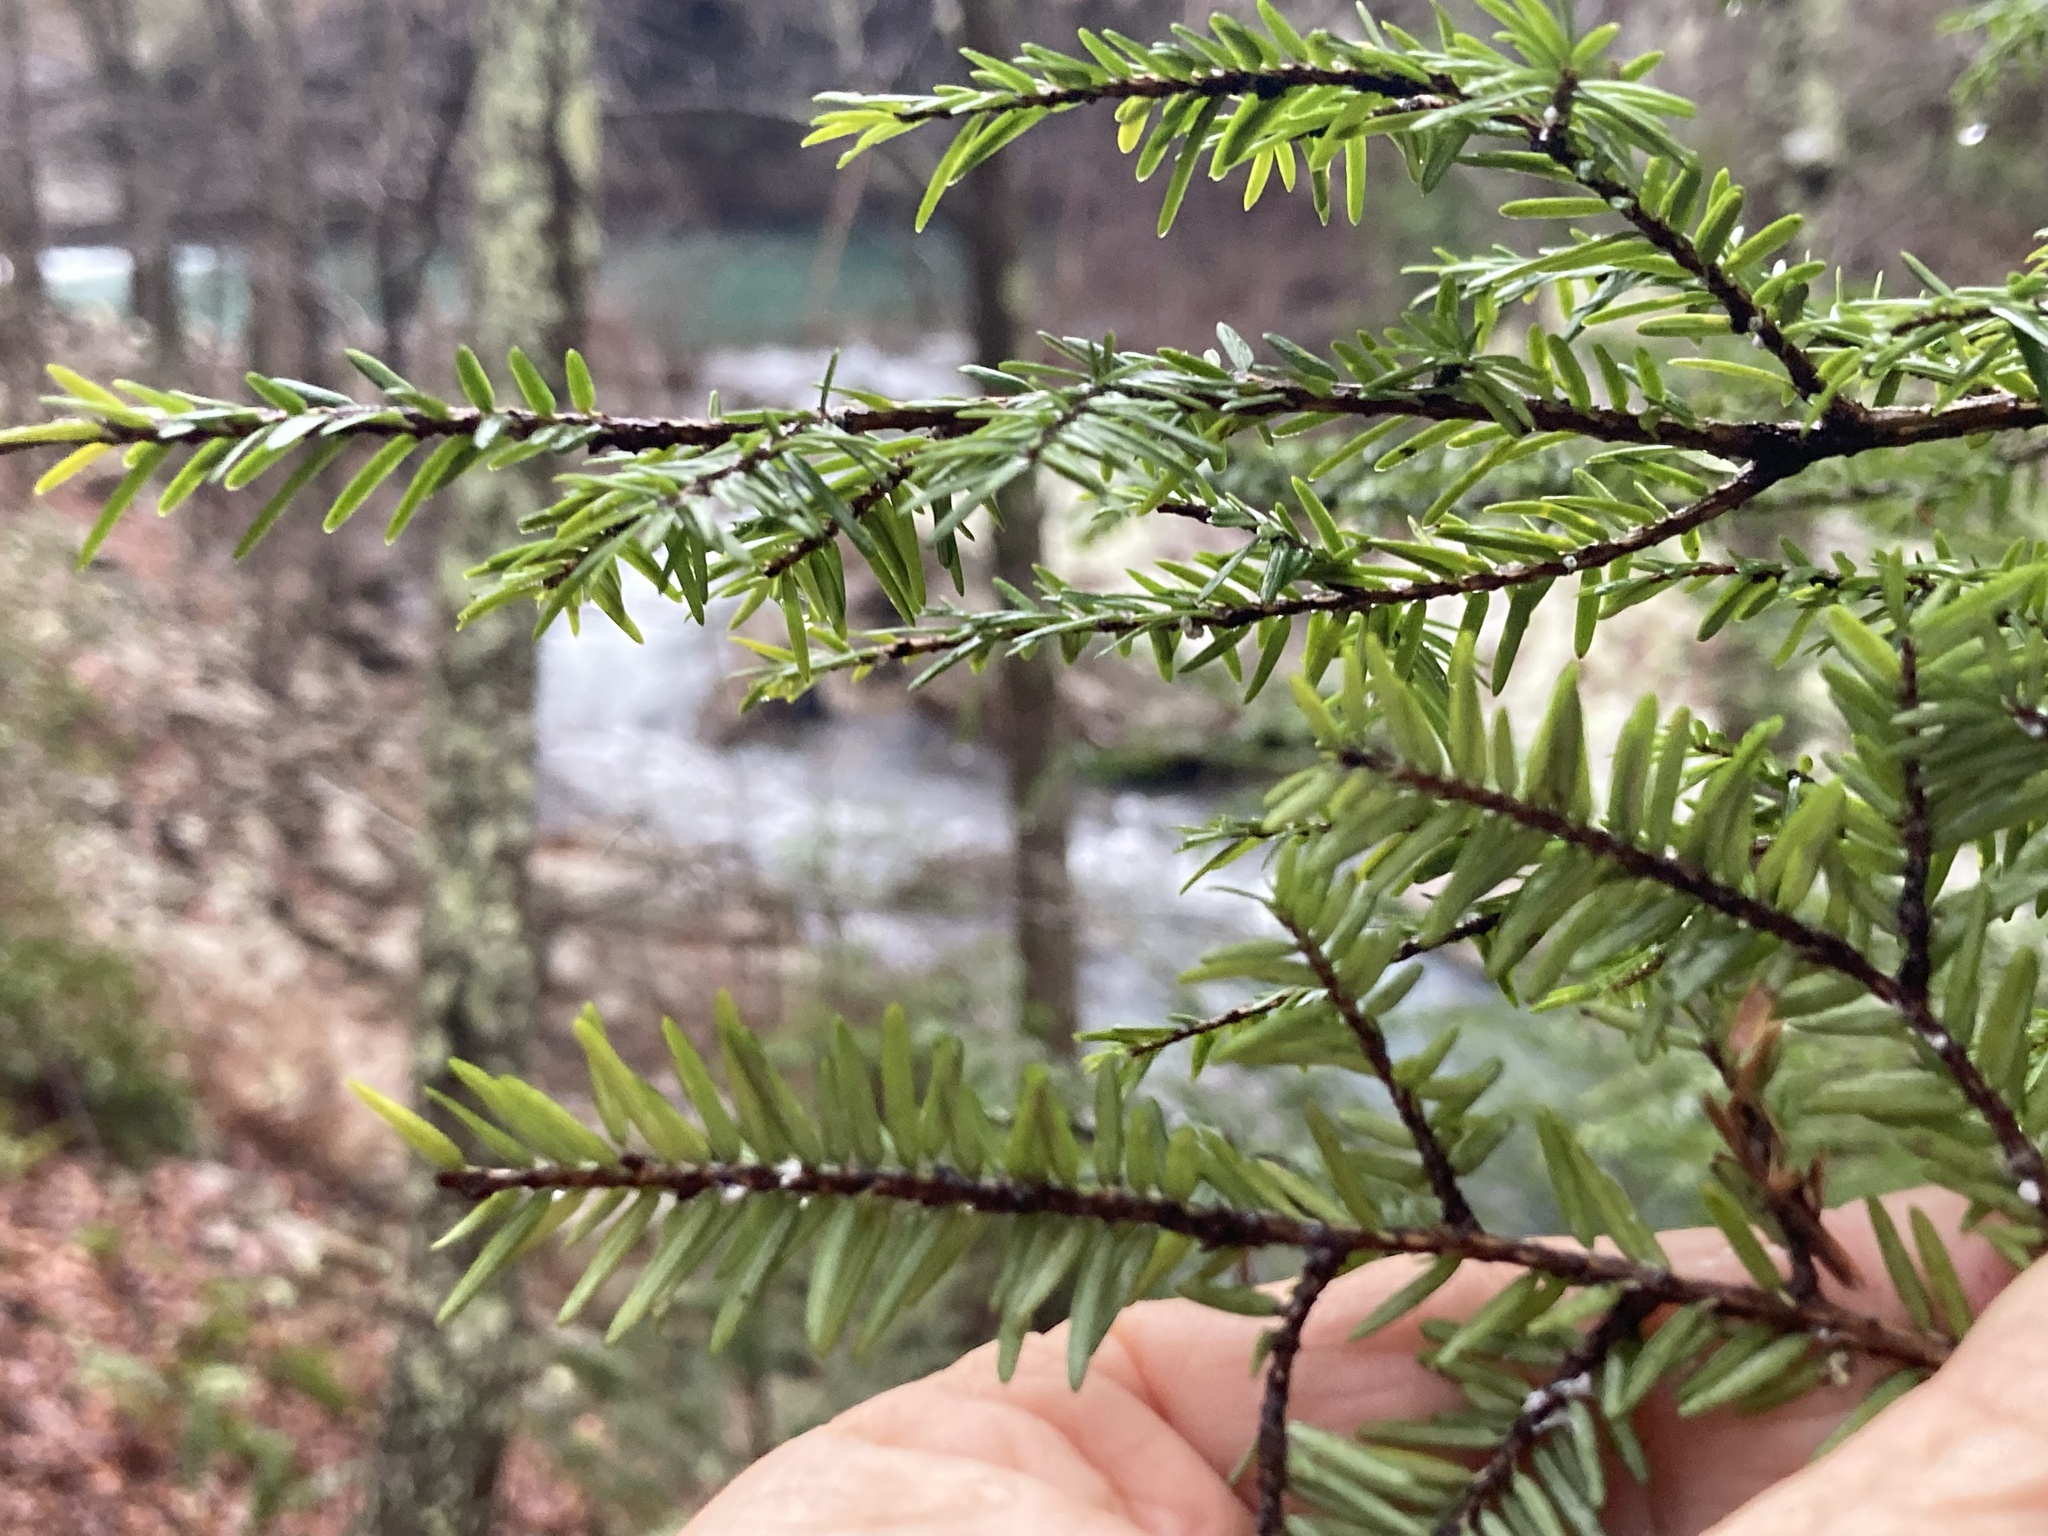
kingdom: Plantae
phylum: Tracheophyta
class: Pinopsida
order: Pinales
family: Pinaceae
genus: Tsuga
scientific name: Tsuga canadensis
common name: Eastern hemlock
